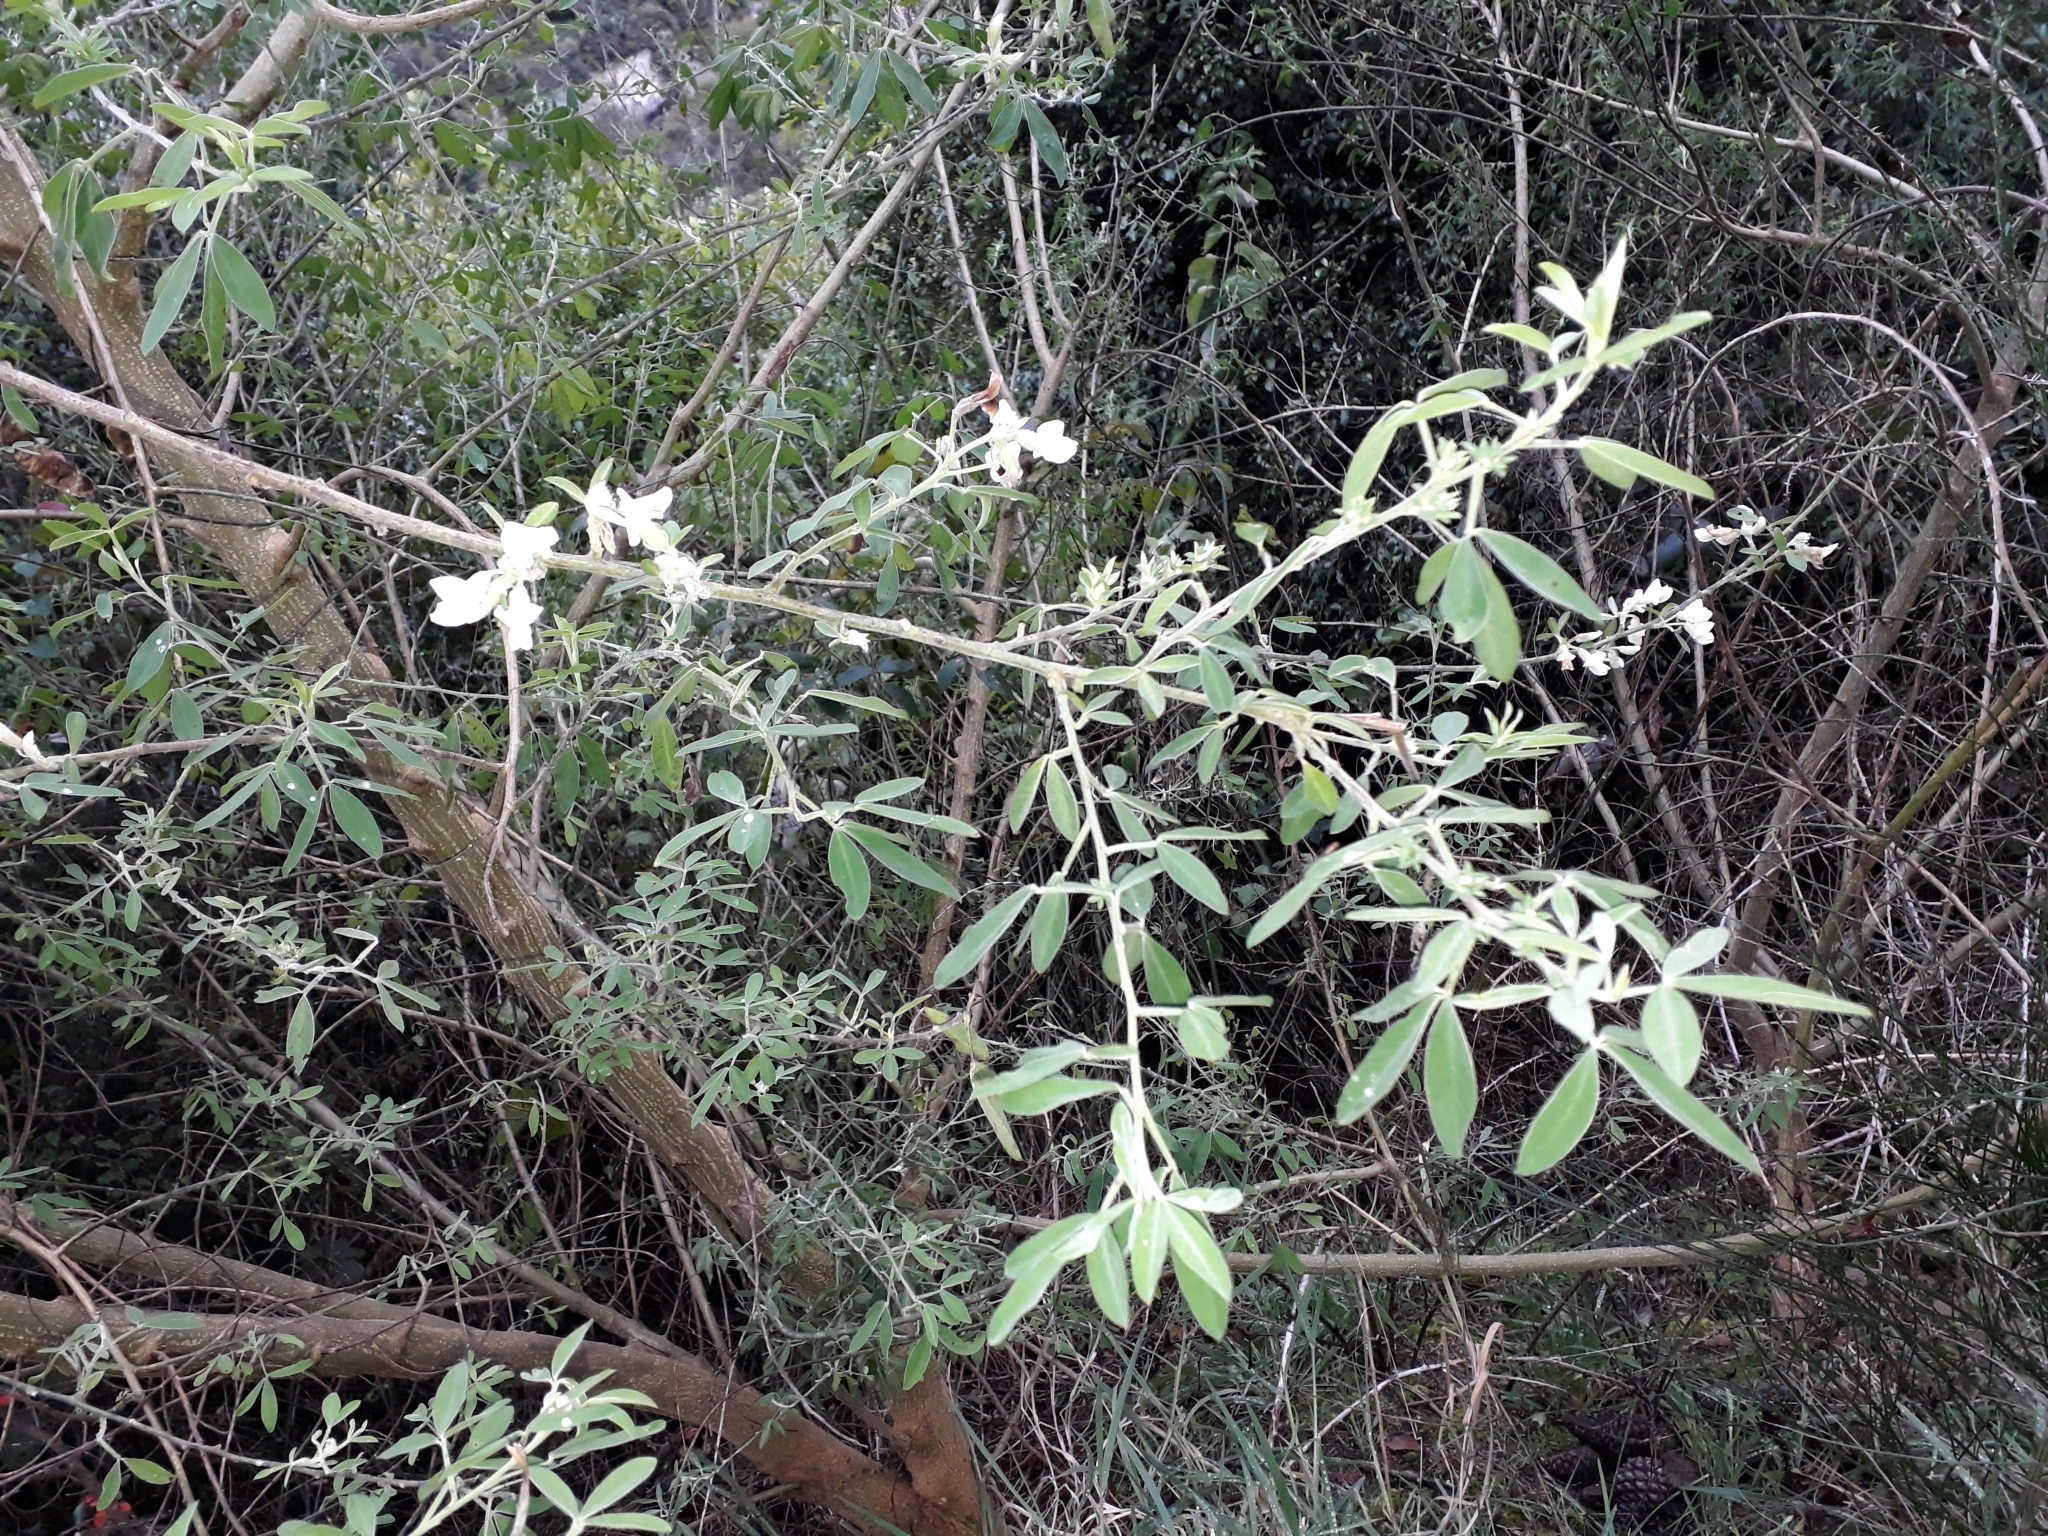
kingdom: Plantae
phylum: Tracheophyta
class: Magnoliopsida
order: Fabales
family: Fabaceae
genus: Chamaecytisus
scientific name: Chamaecytisus prolifer
